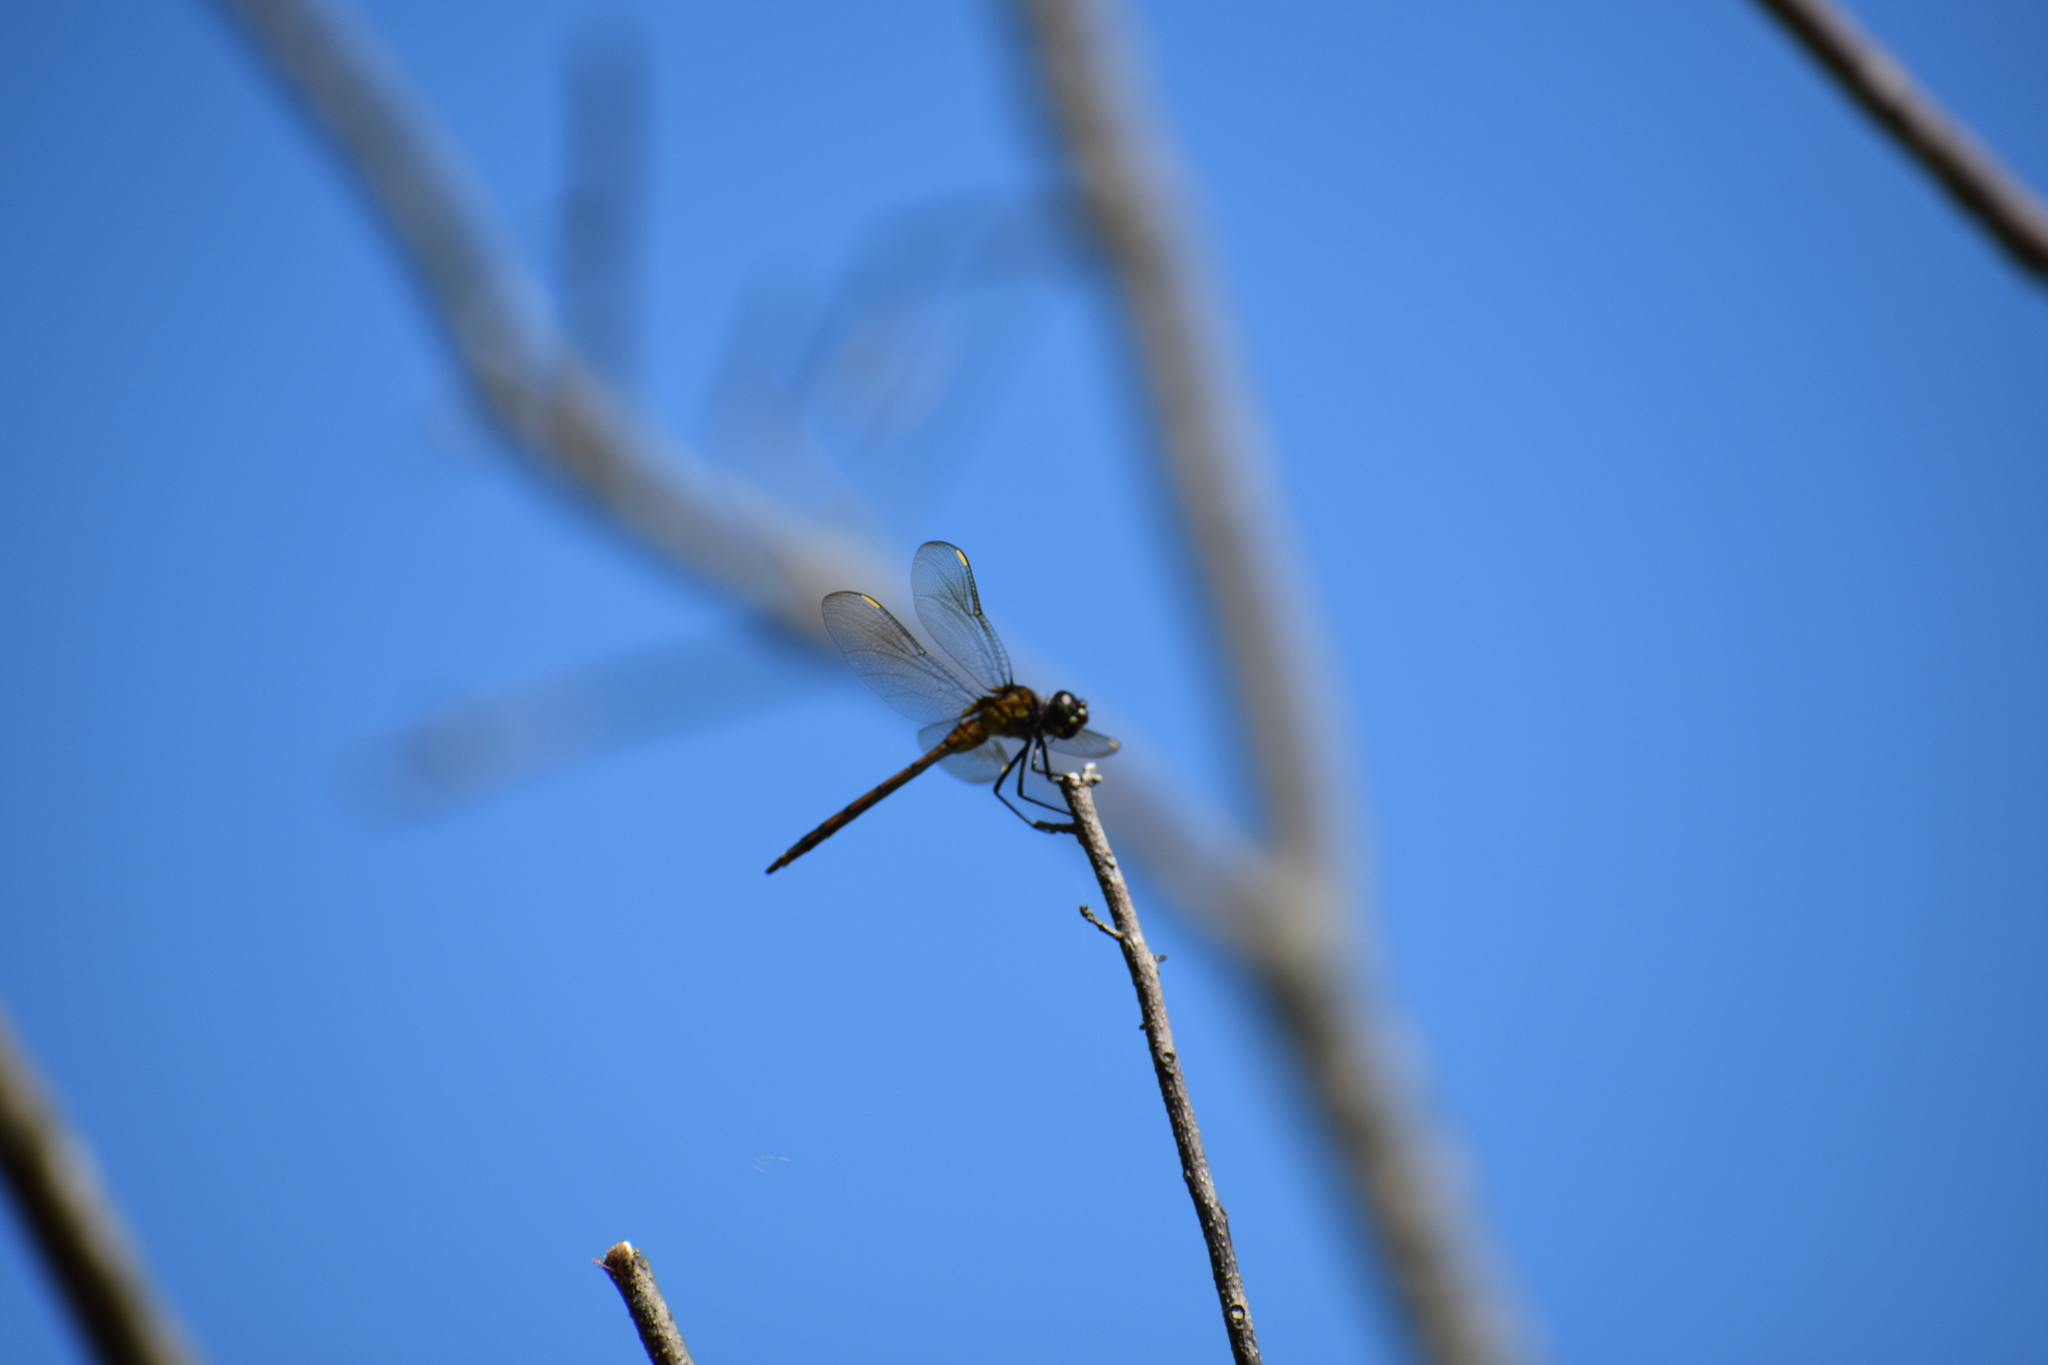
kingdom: Animalia
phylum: Arthropoda
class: Insecta
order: Odonata
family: Libellulidae
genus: Brachymesia
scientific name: Brachymesia gravida
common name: Four-spotted pennant
